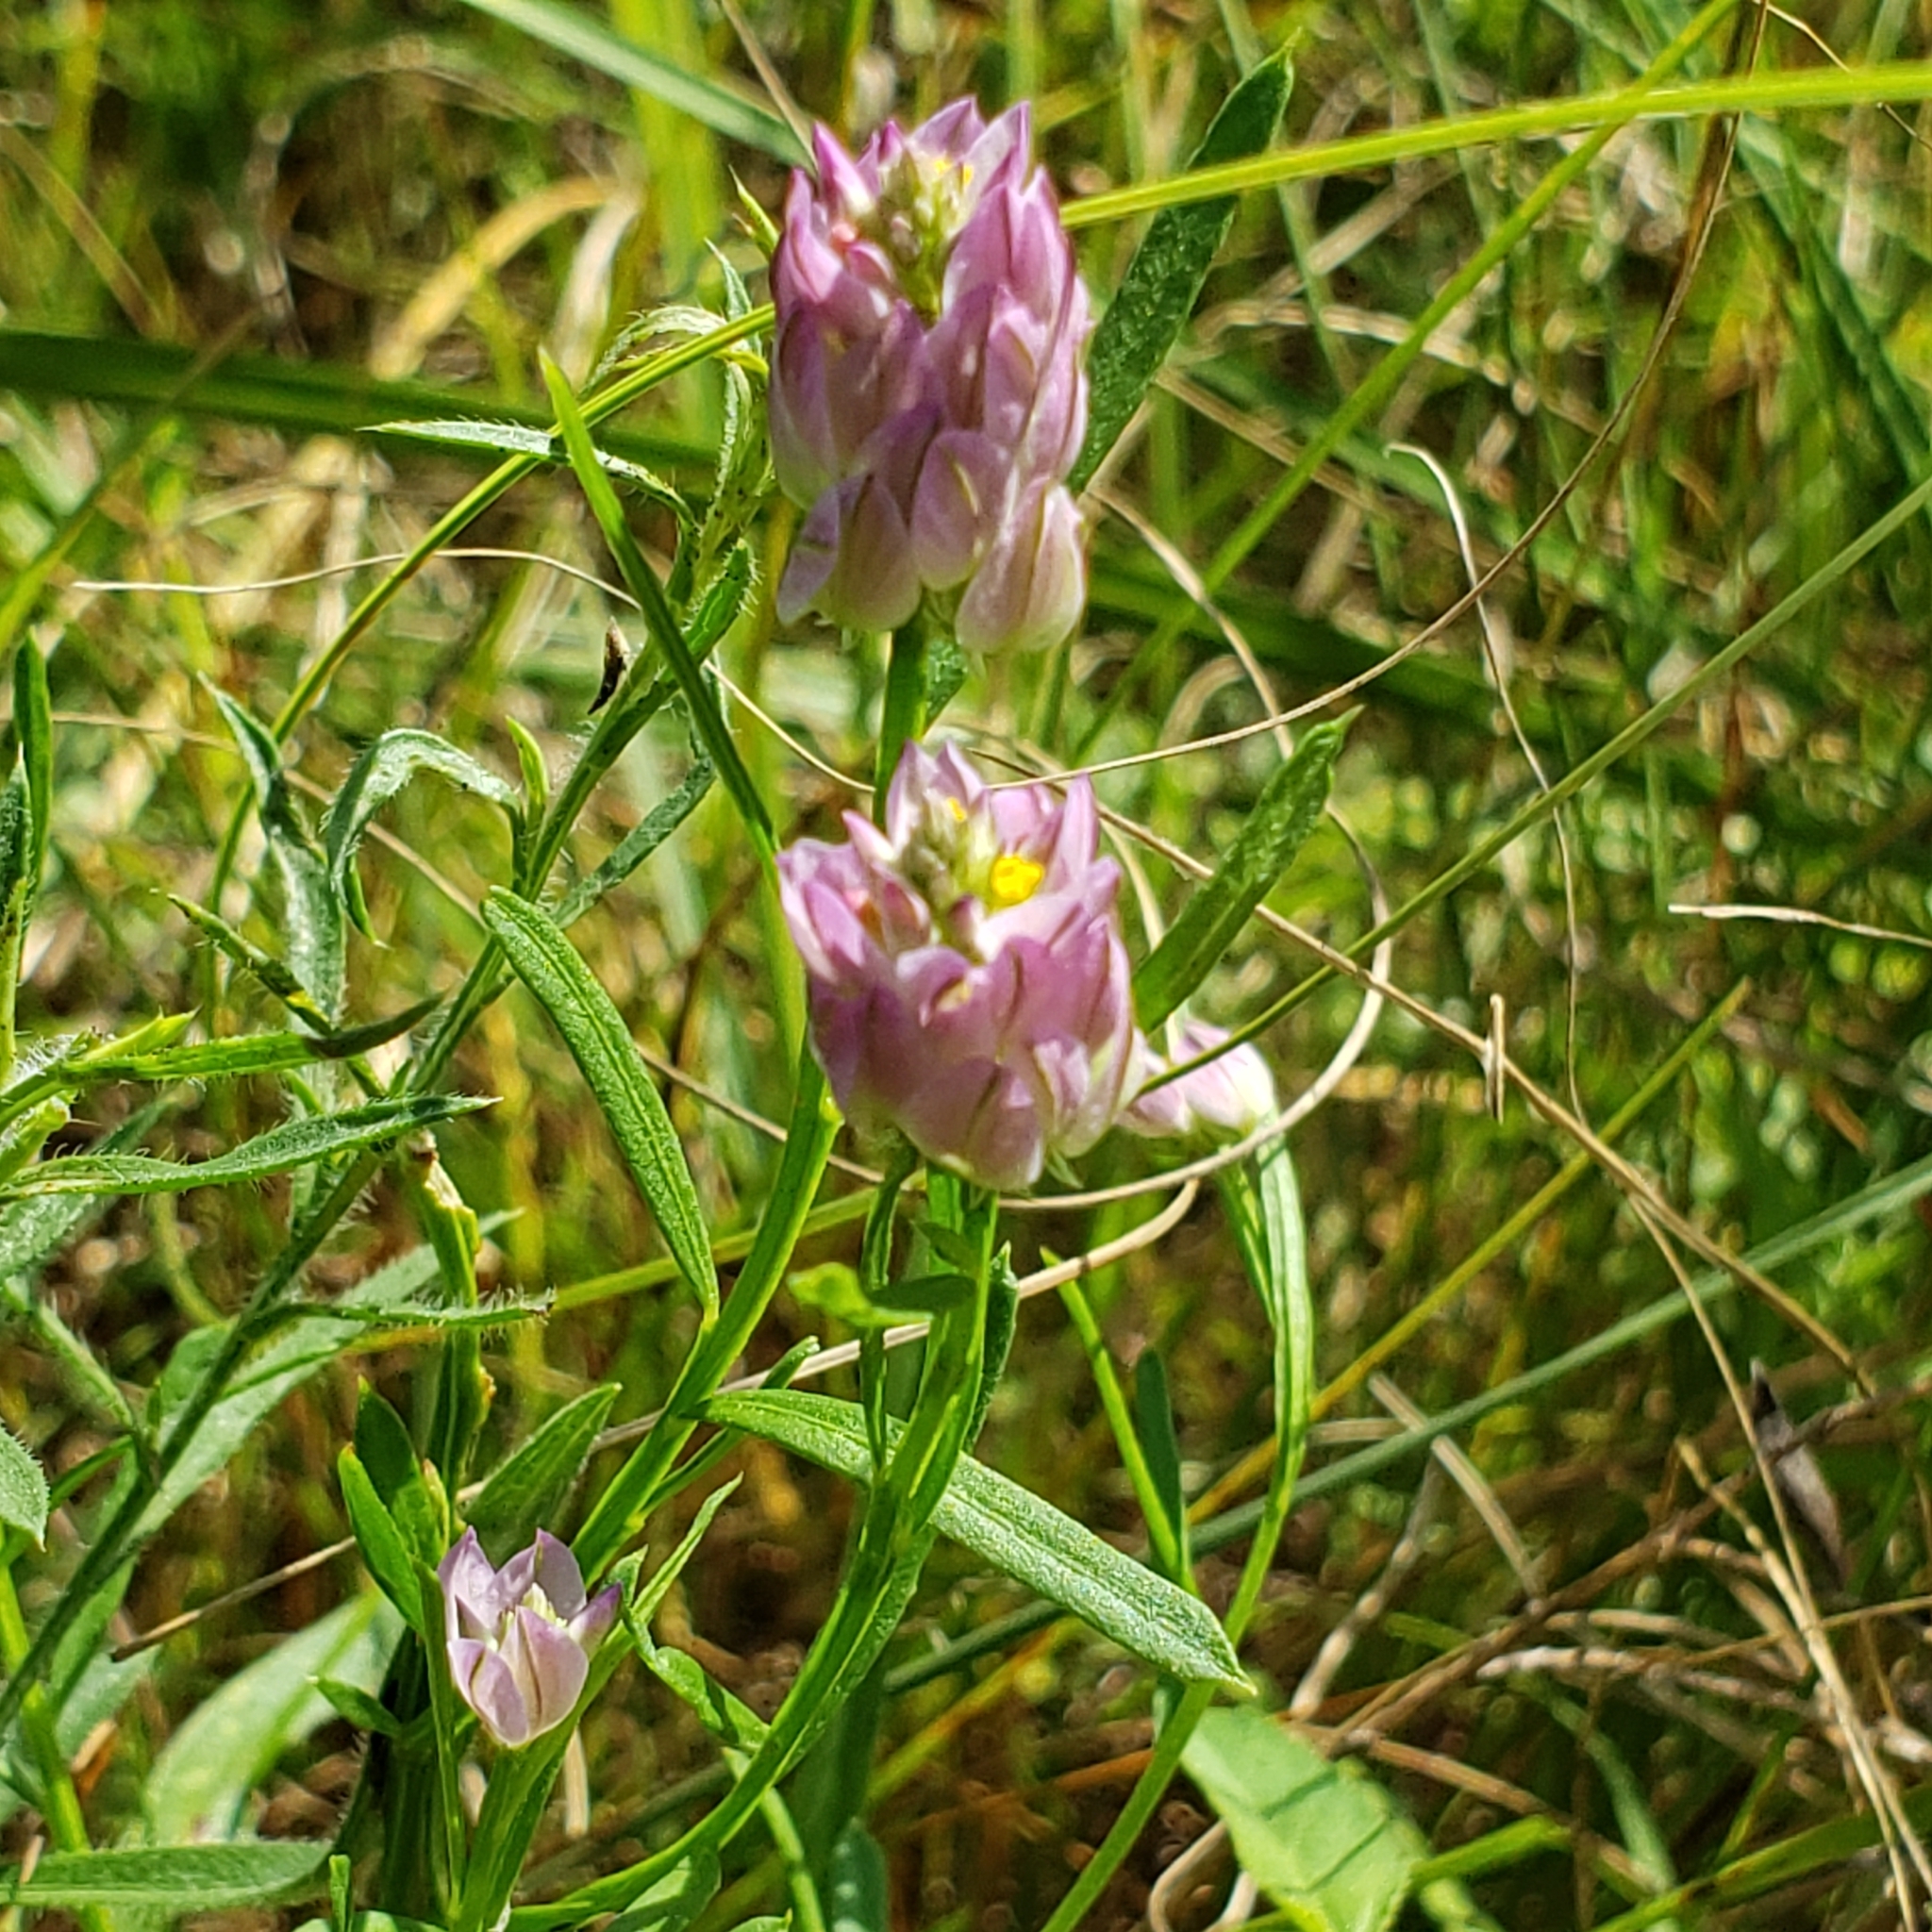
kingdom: Plantae
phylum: Tracheophyta
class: Magnoliopsida
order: Fabales
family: Polygalaceae
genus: Polygala
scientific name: Polygala sanguinea
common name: Blood milkwort
